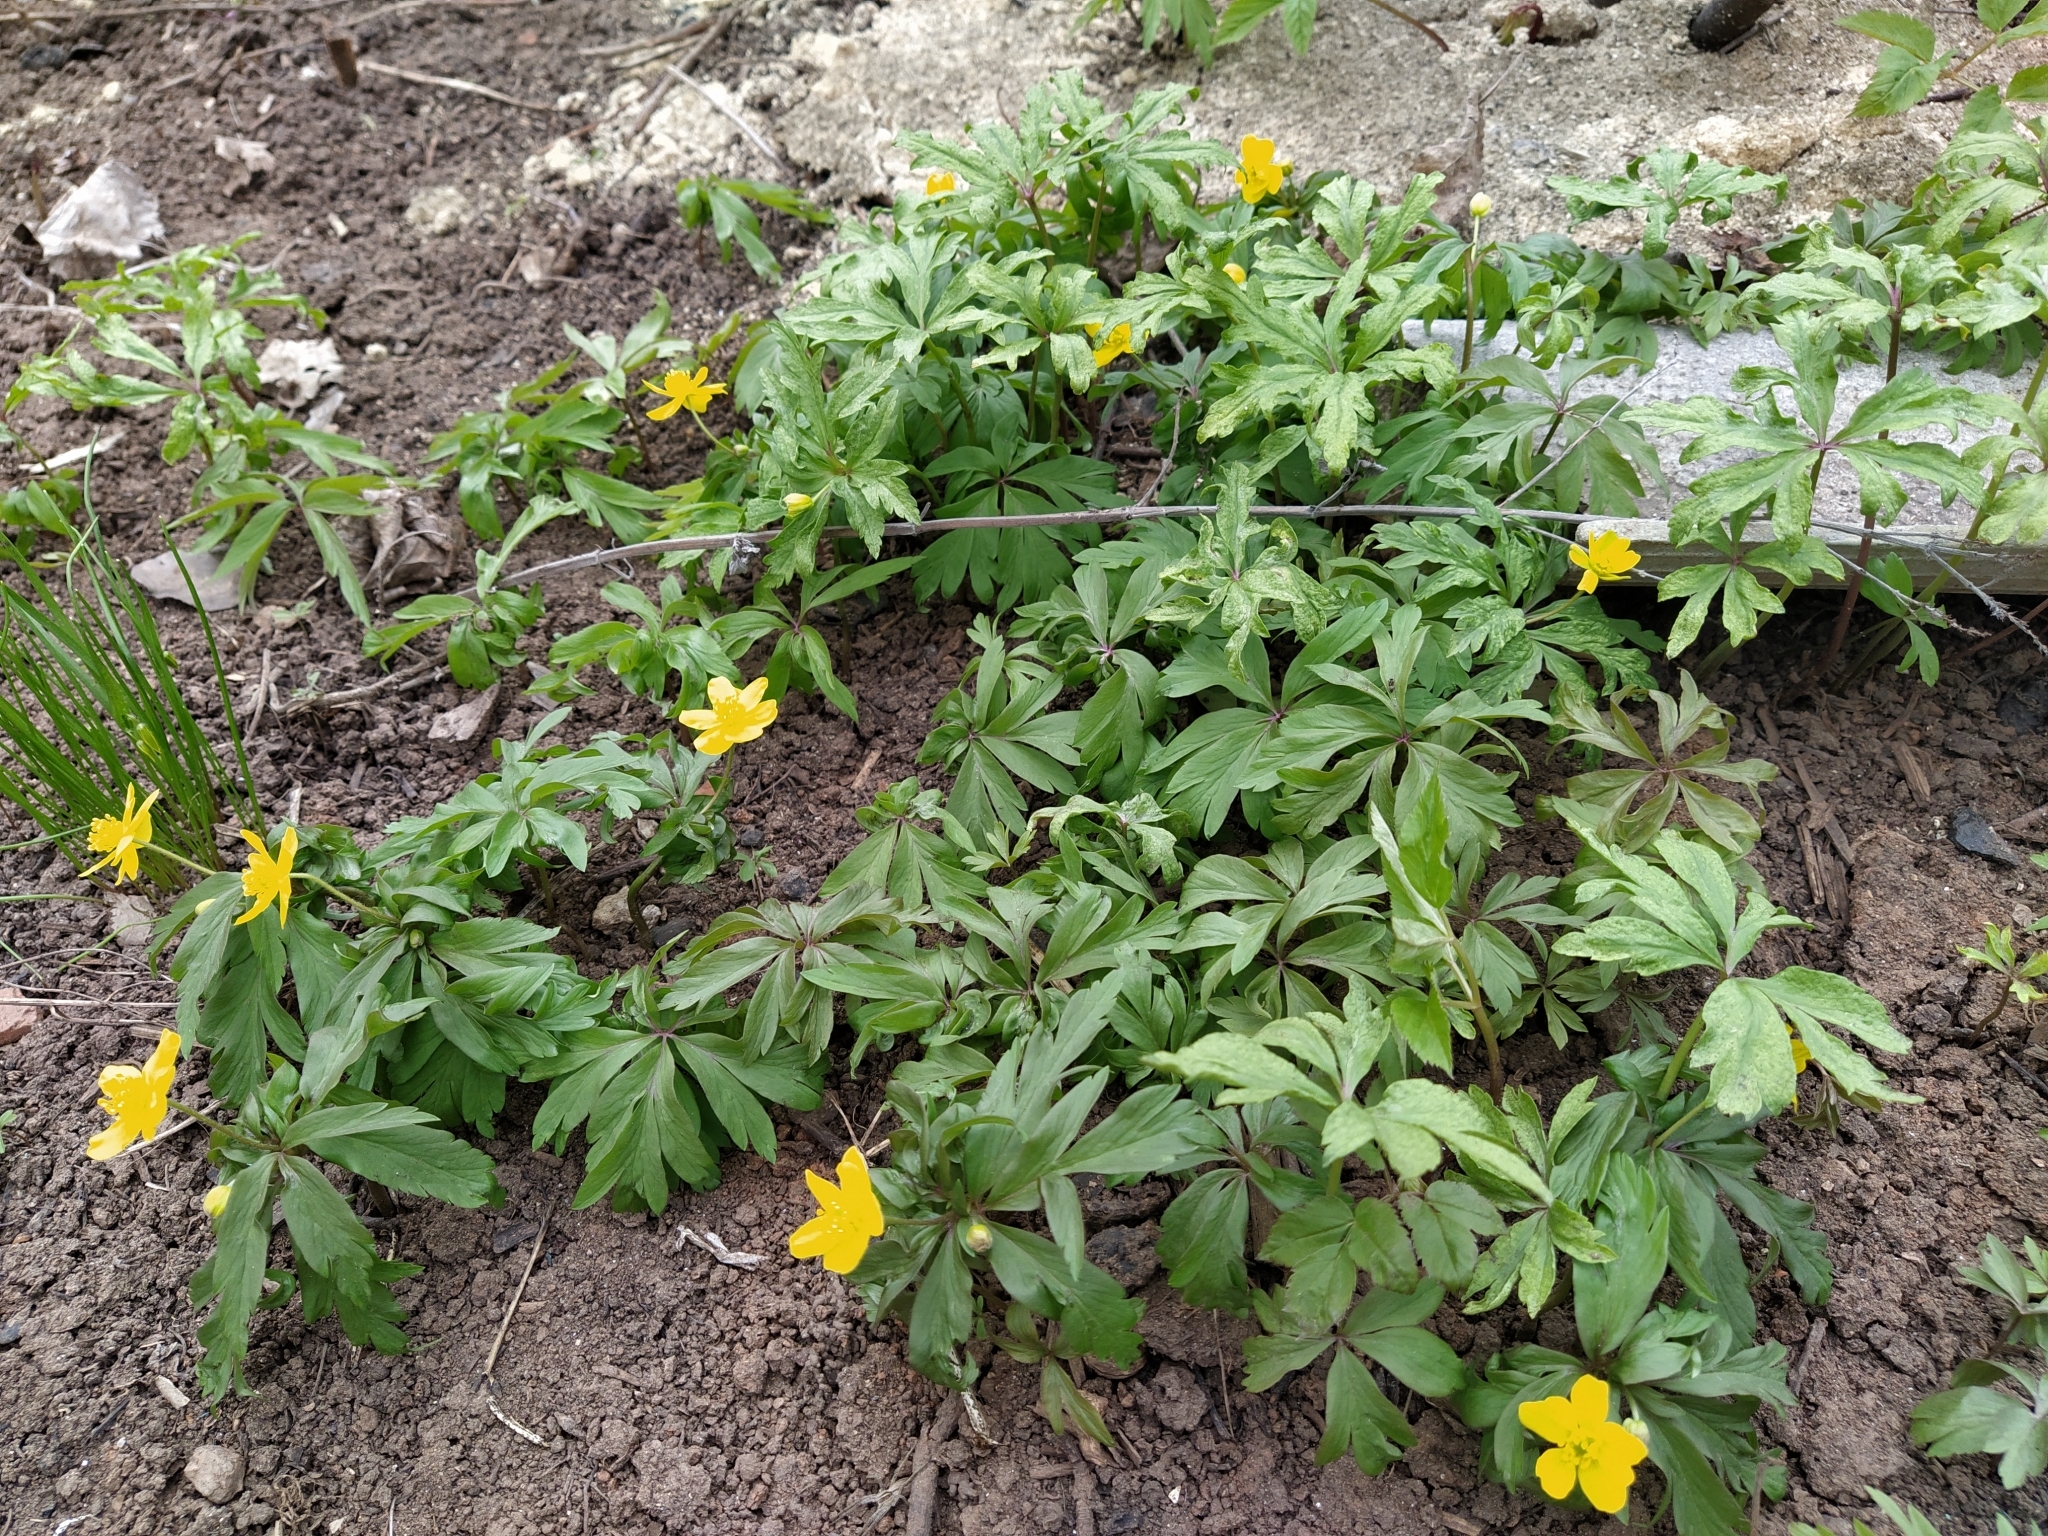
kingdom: Plantae
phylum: Tracheophyta
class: Magnoliopsida
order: Ranunculales
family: Ranunculaceae
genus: Anemone
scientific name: Anemone ranunculoides
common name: Yellow anemone
